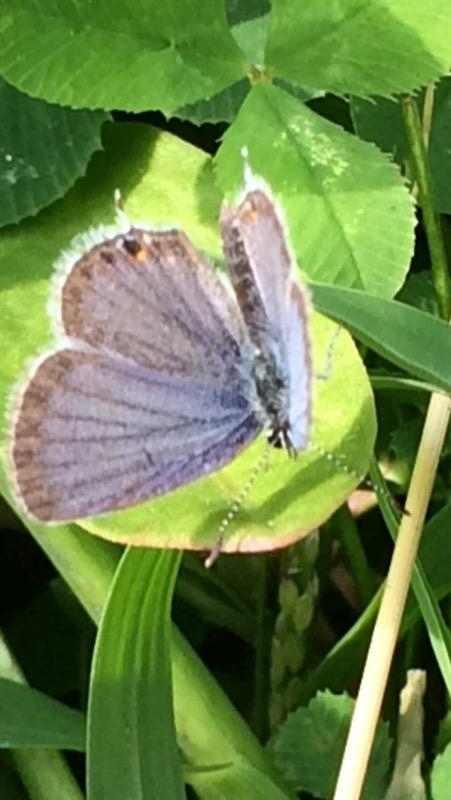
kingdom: Animalia
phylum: Arthropoda
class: Insecta
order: Lepidoptera
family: Lycaenidae
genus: Elkalyce
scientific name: Elkalyce comyntas
